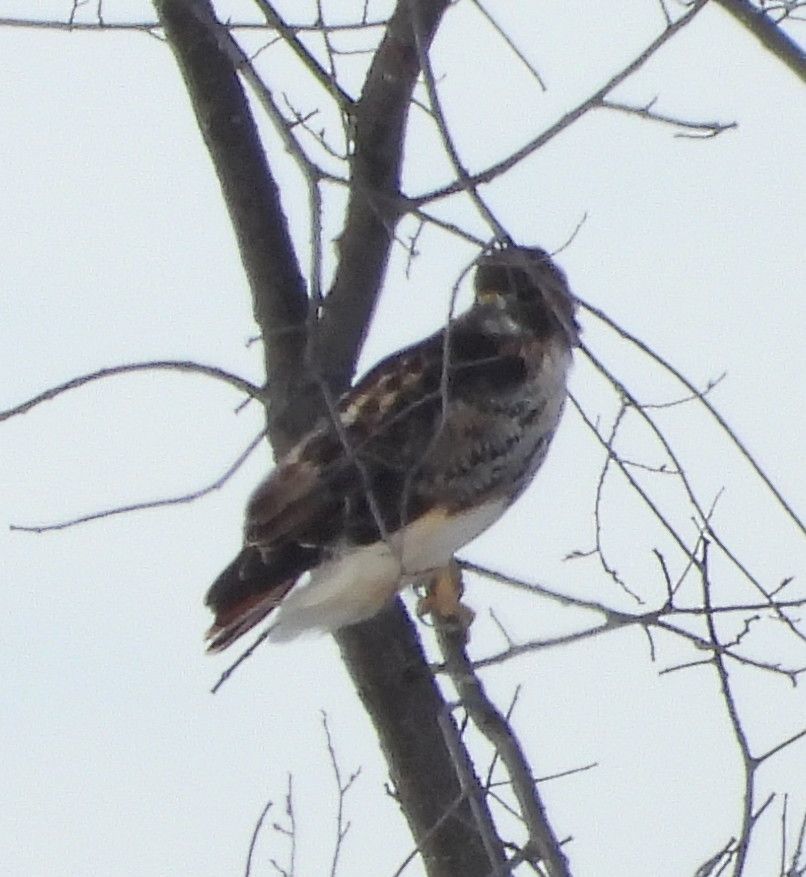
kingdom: Animalia
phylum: Chordata
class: Aves
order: Accipitriformes
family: Accipitridae
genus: Buteo
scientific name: Buteo jamaicensis
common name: Red-tailed hawk
